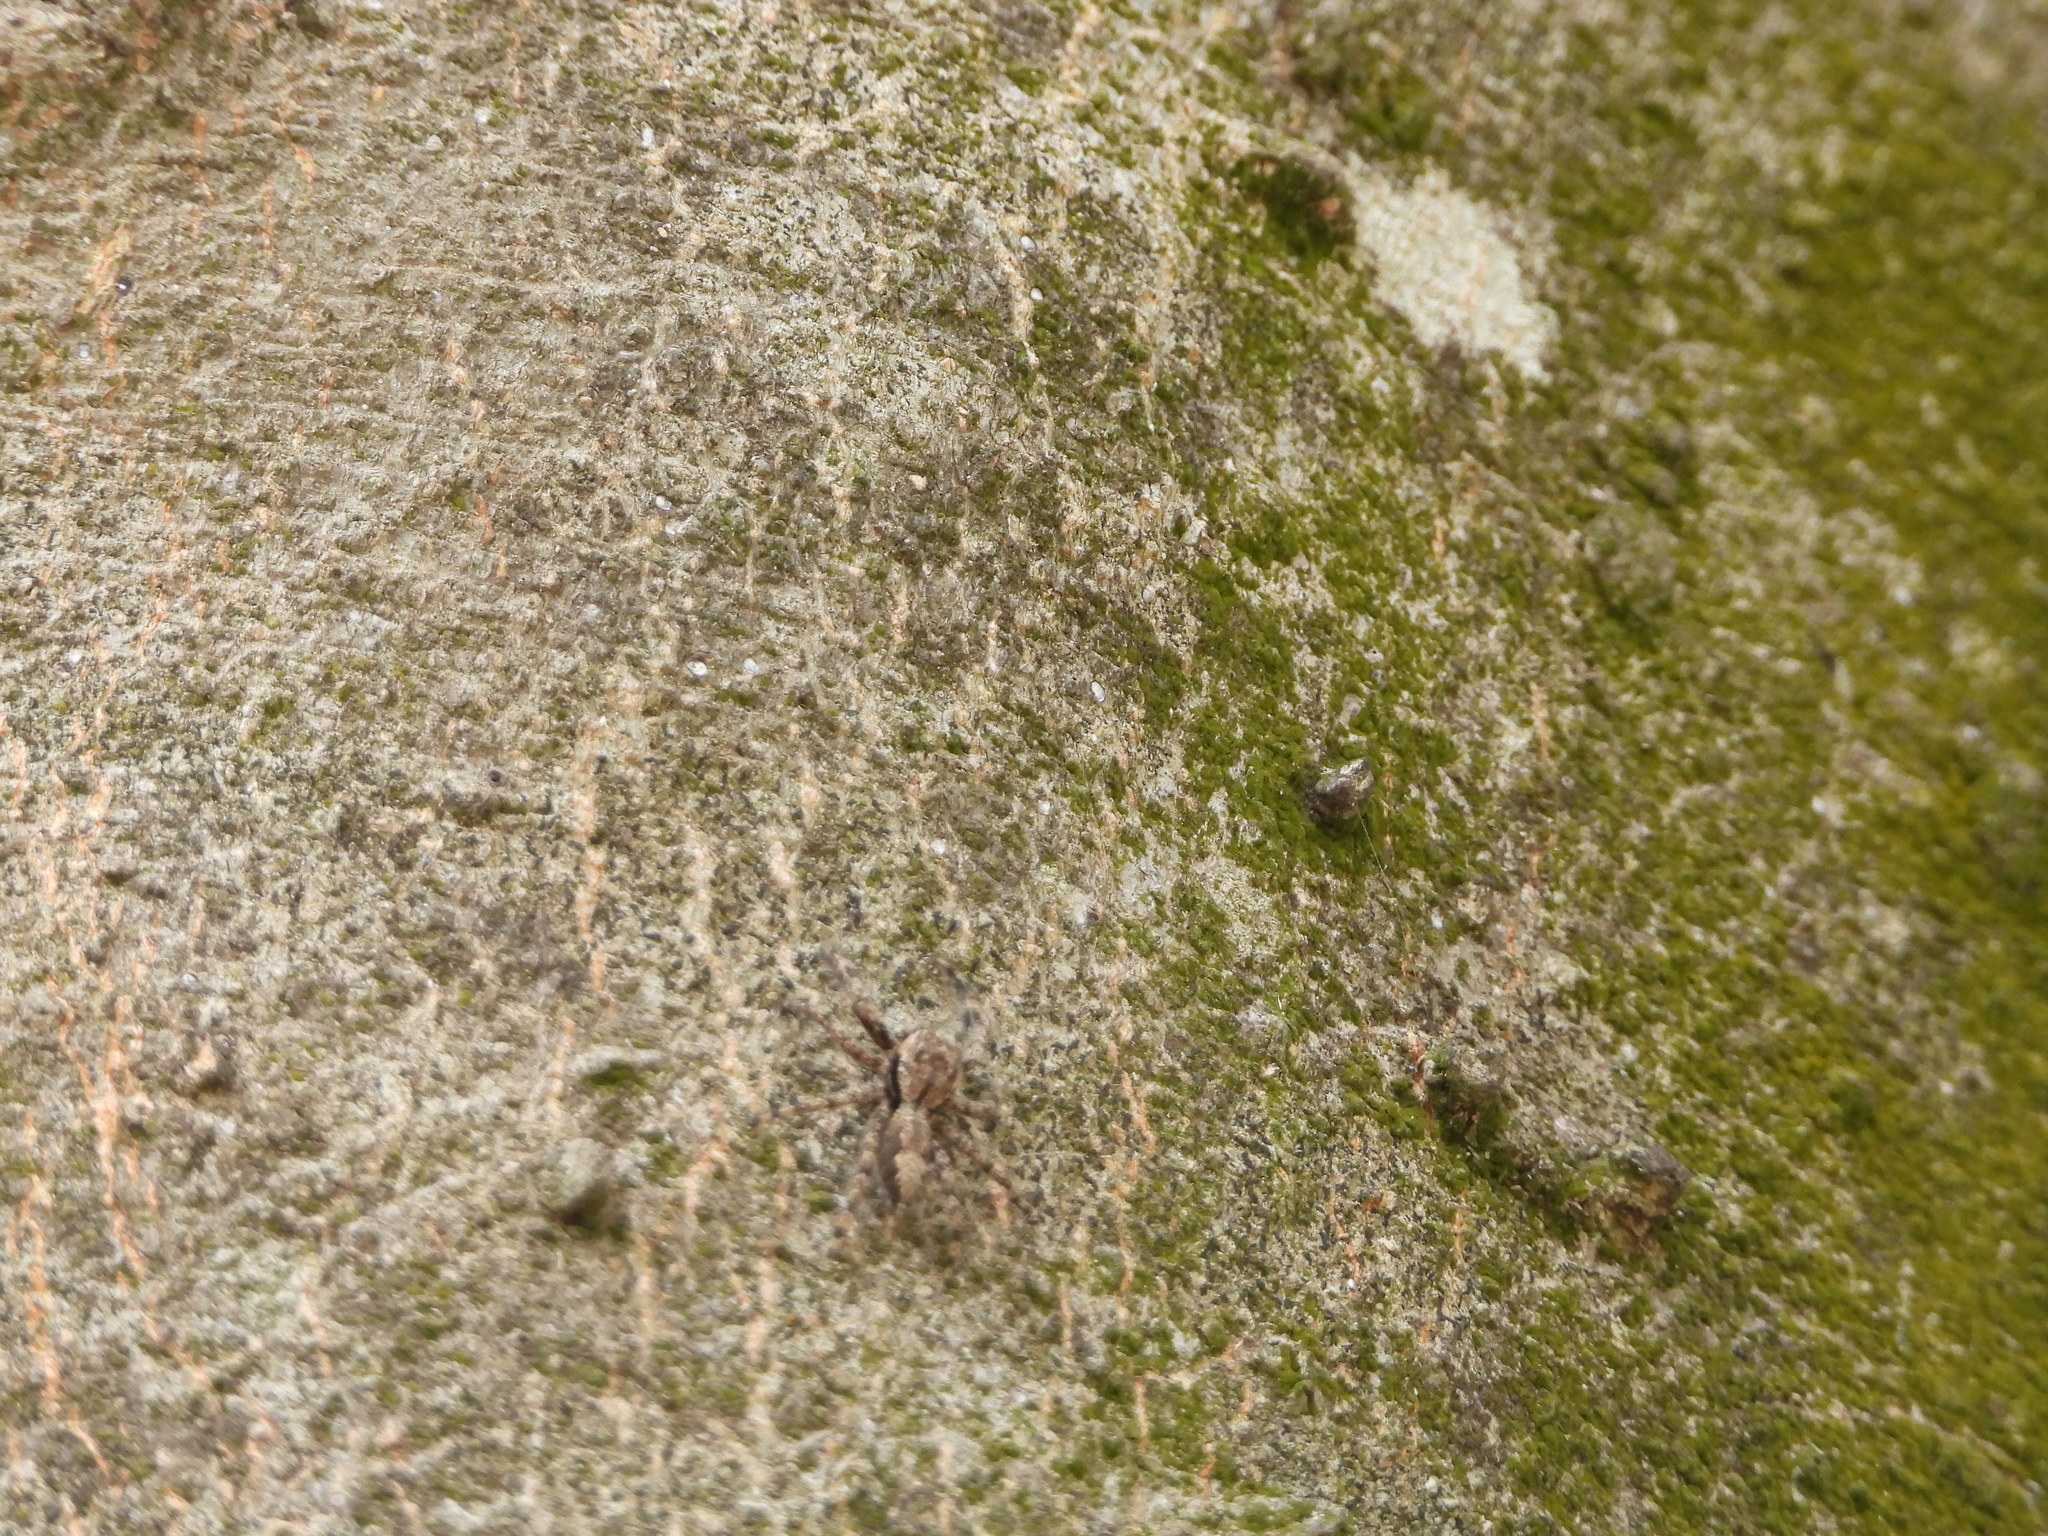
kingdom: Animalia
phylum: Arthropoda
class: Arachnida
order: Araneae
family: Salticidae
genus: Platycryptus
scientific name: Platycryptus undatus
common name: Tan jumping spider
